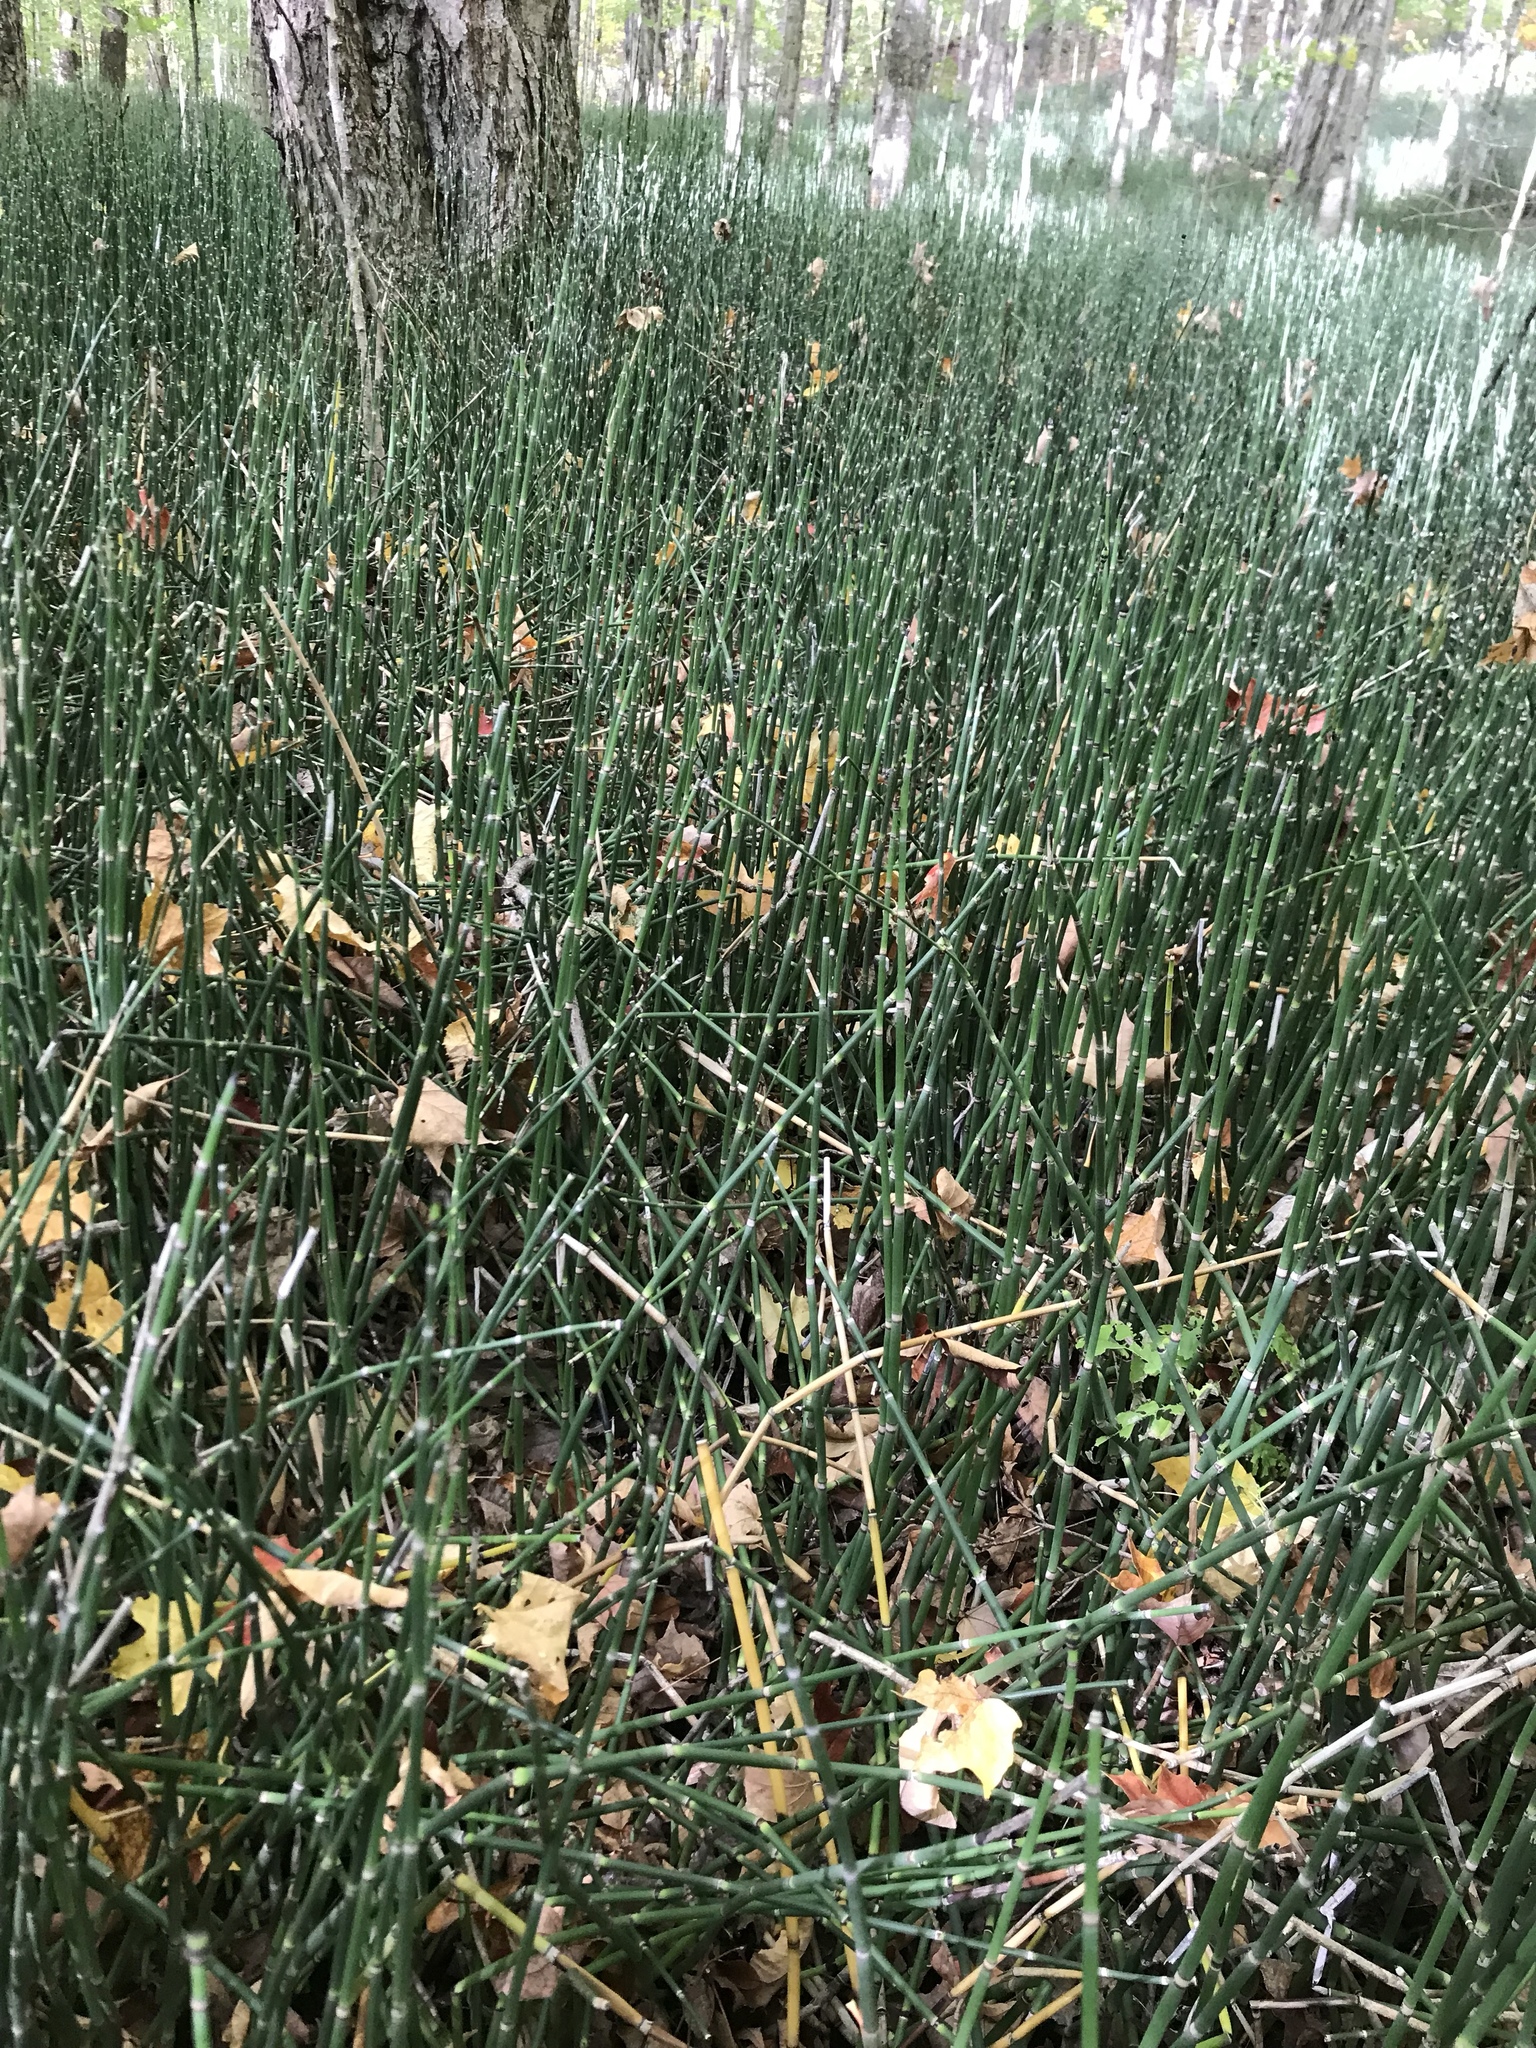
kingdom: Plantae
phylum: Tracheophyta
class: Polypodiopsida
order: Equisetales
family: Equisetaceae
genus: Equisetum
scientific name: Equisetum praealtum
